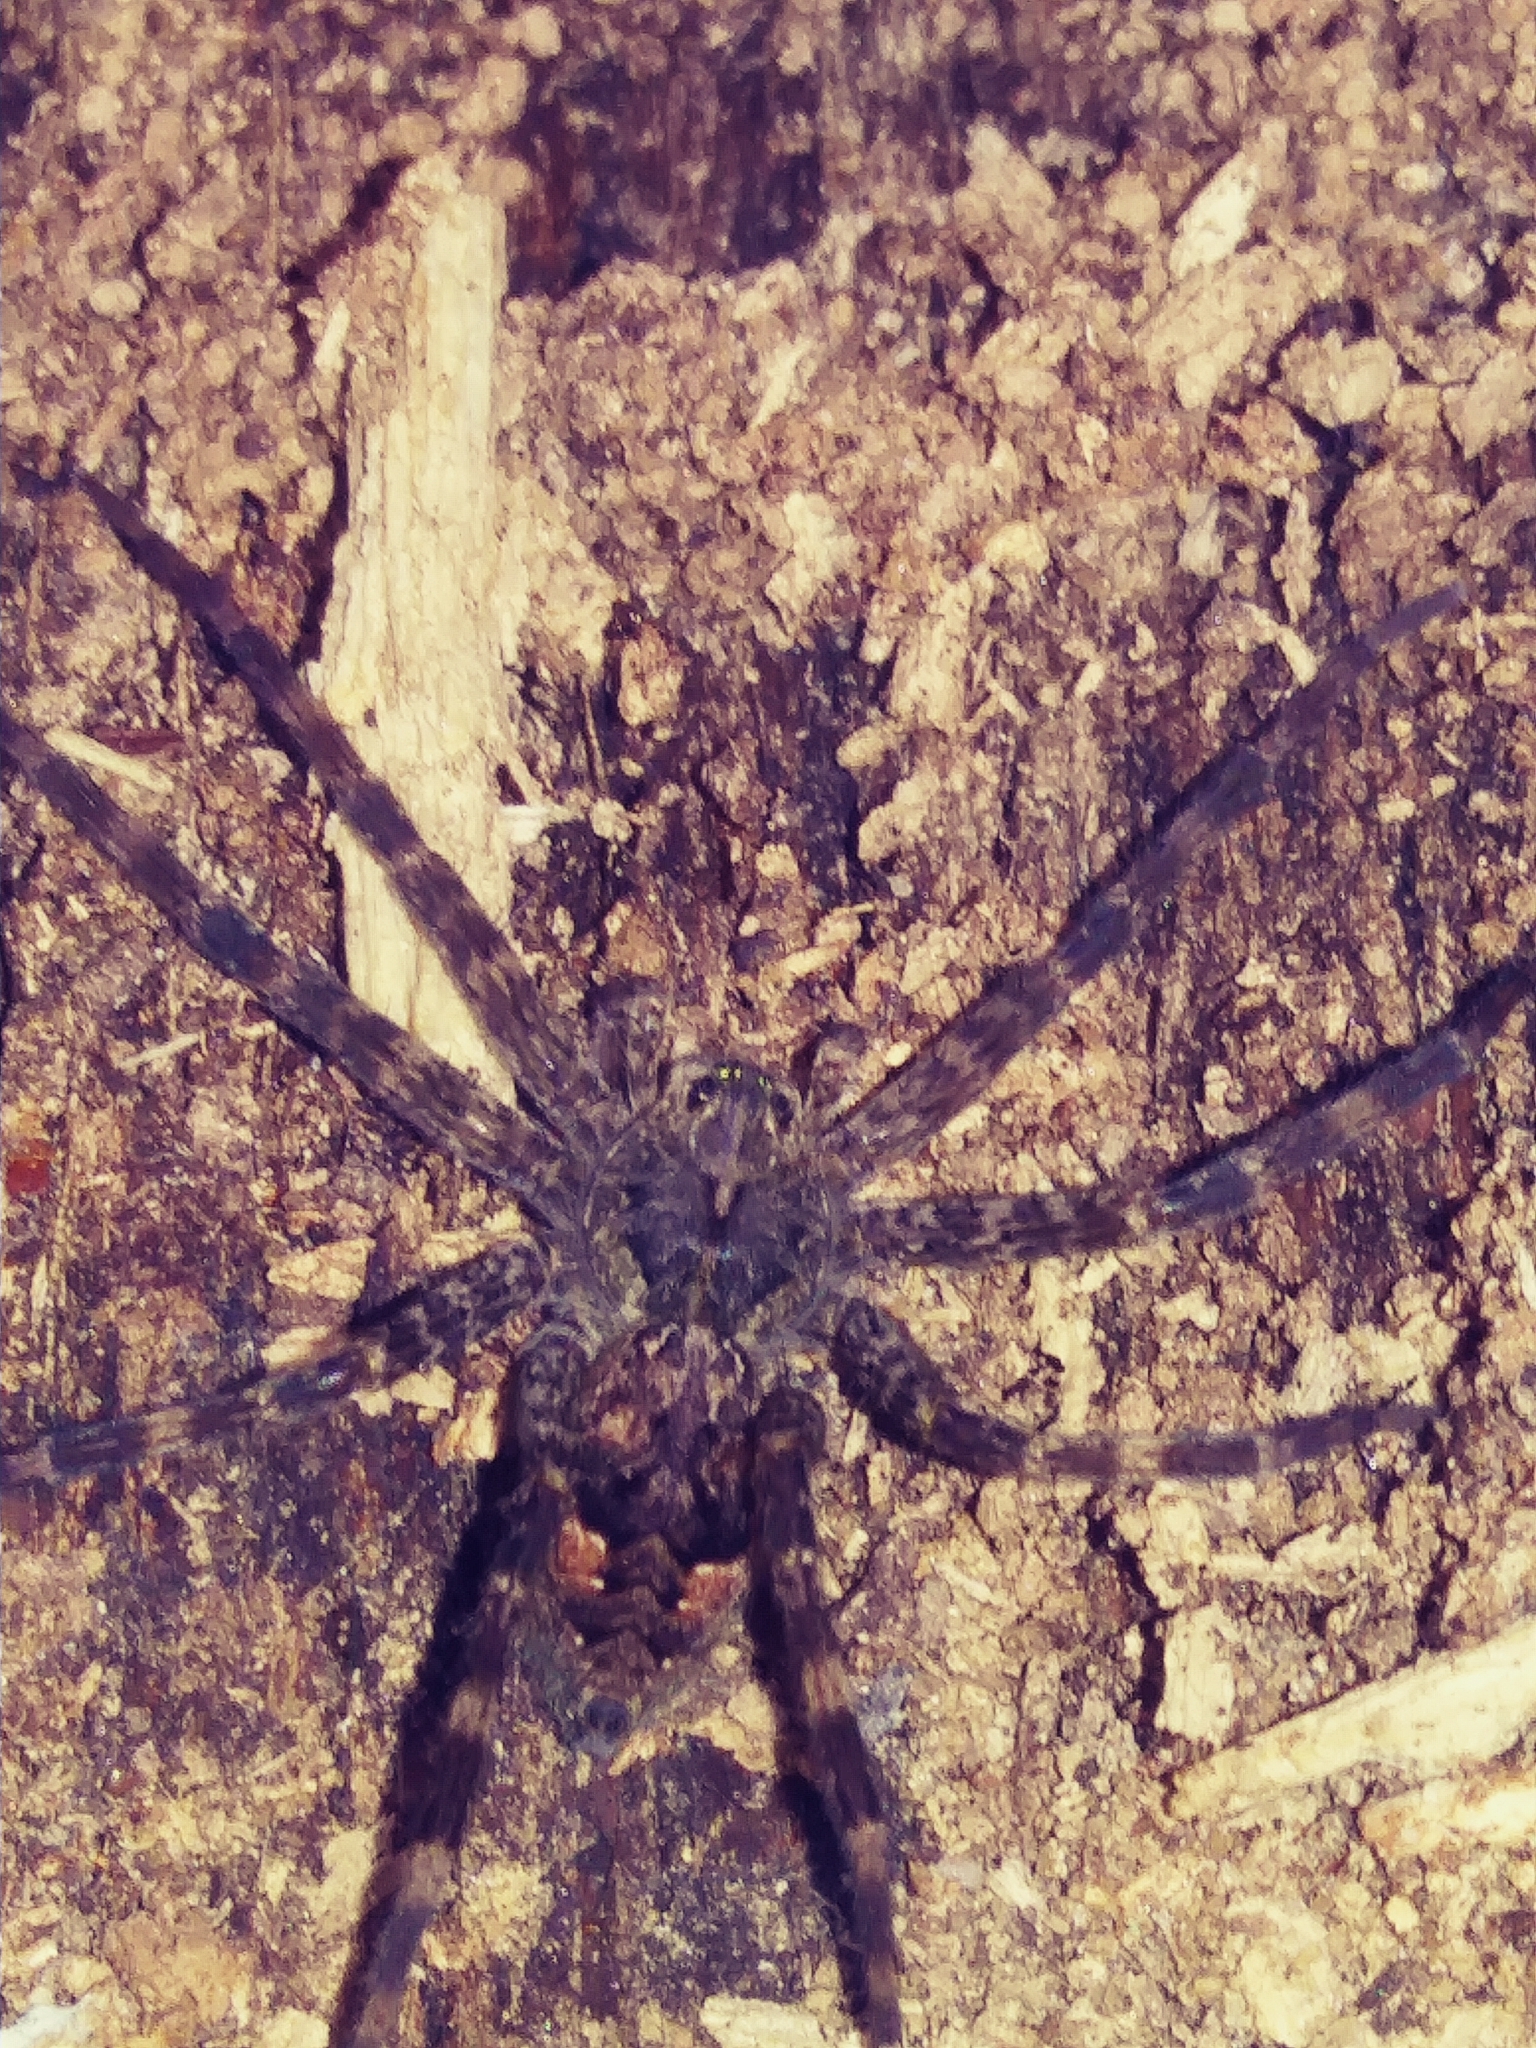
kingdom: Animalia
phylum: Arthropoda
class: Arachnida
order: Araneae
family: Pisauridae
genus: Dolomedes
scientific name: Dolomedes tenebrosus
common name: Dark fishing spider
